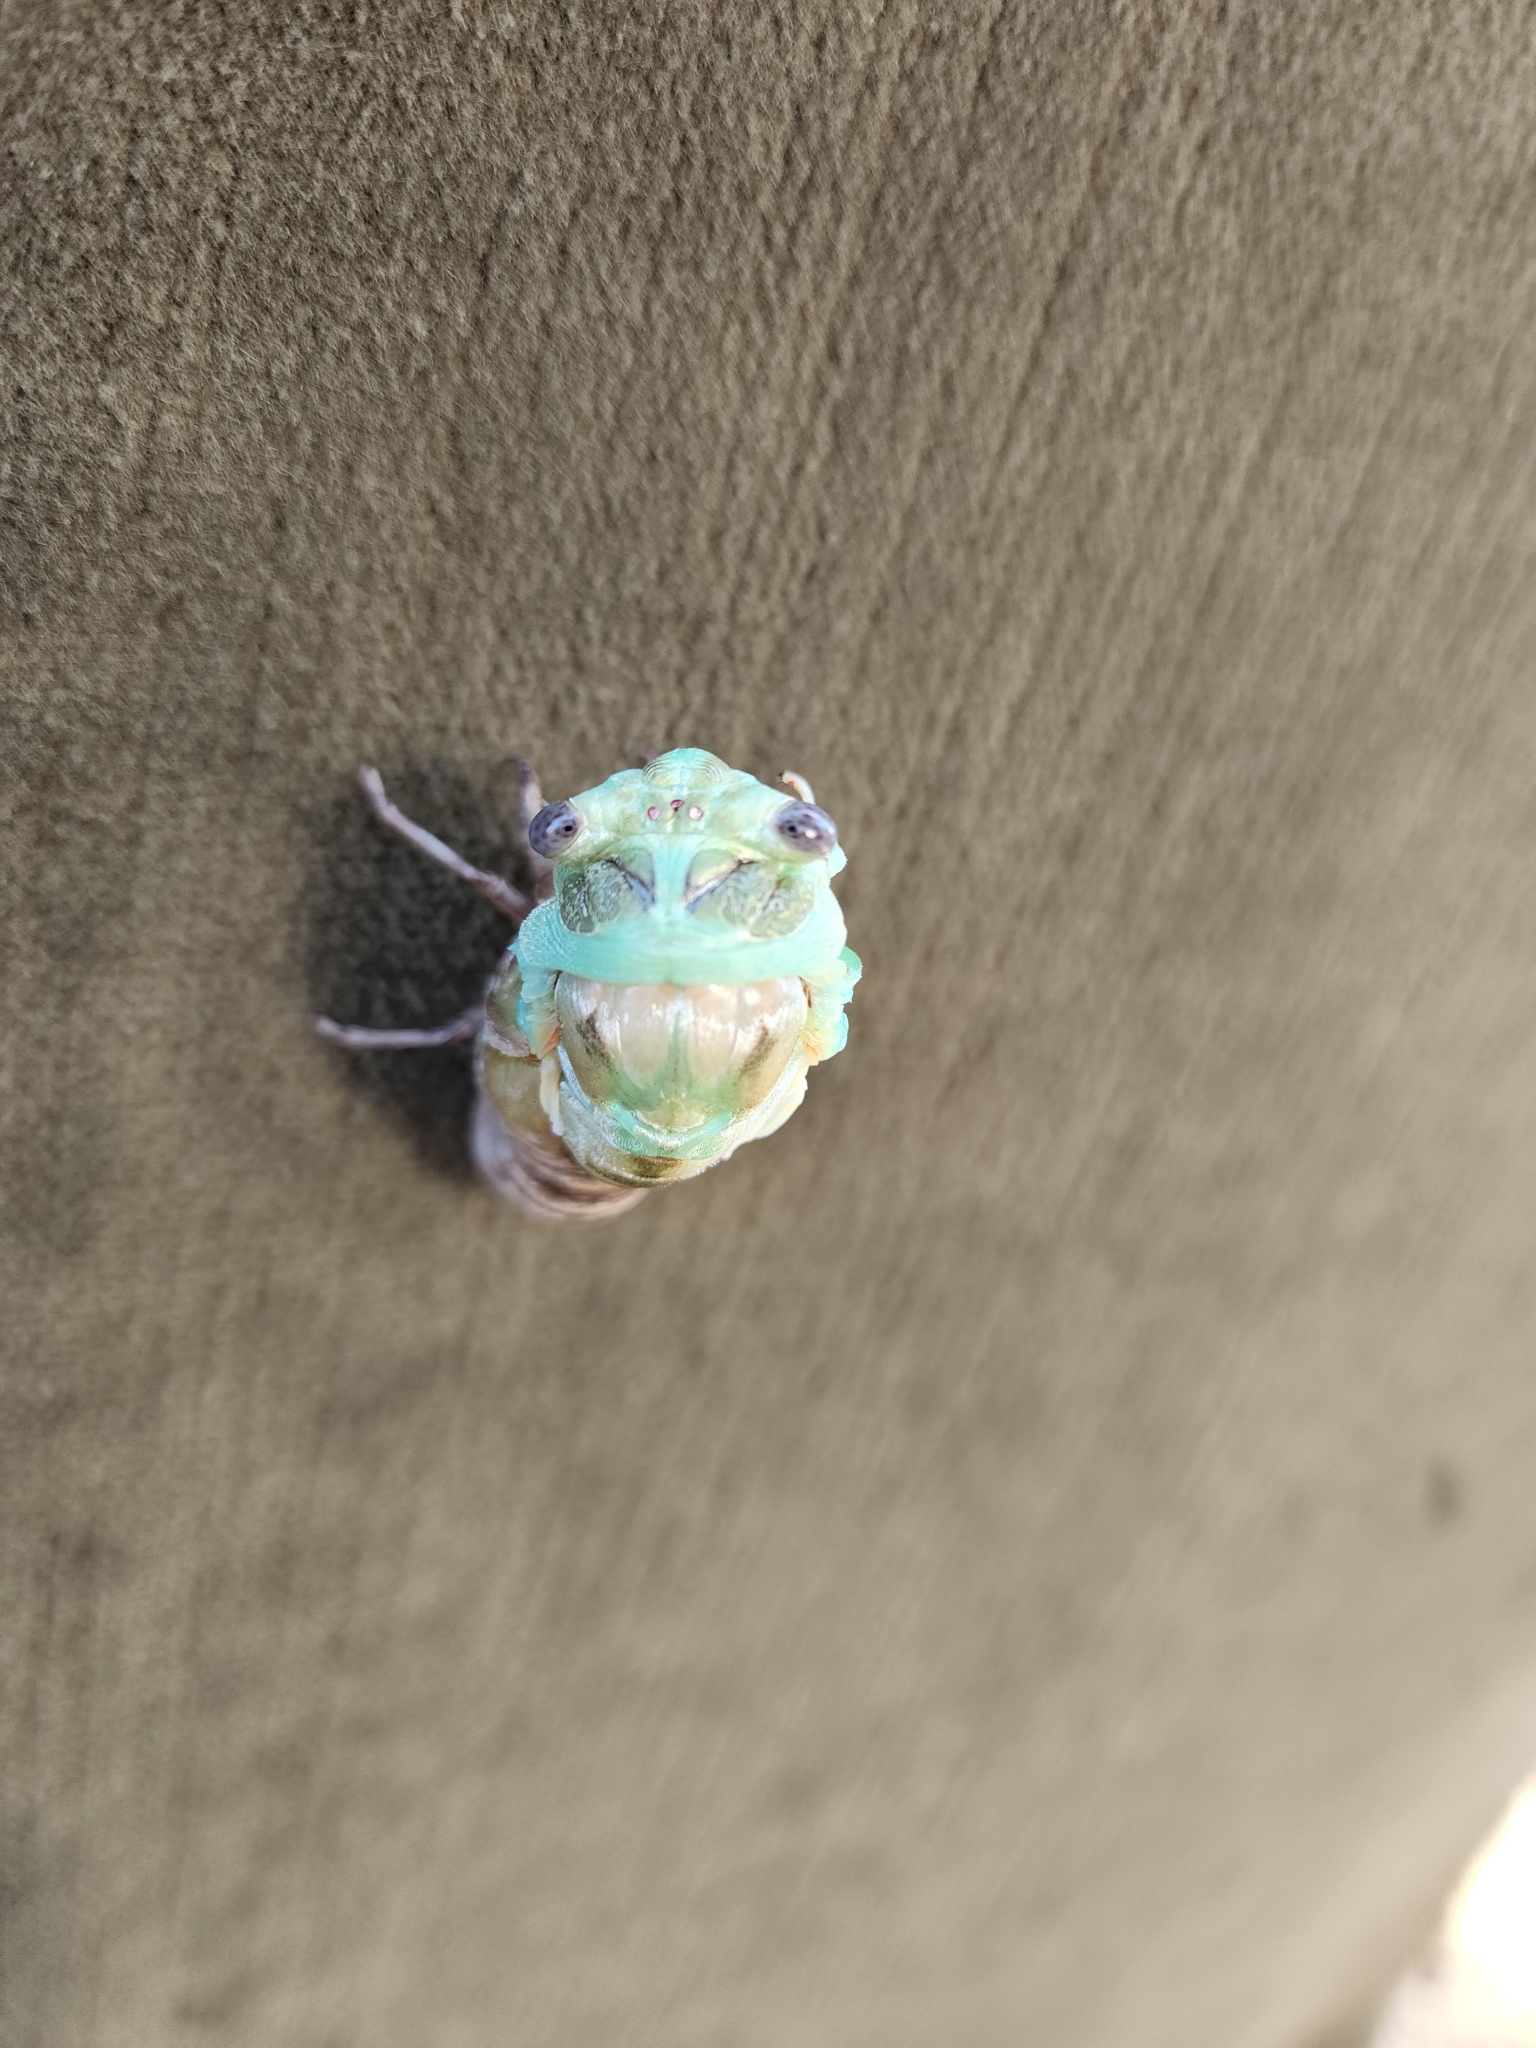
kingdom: Animalia
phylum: Arthropoda
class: Insecta
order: Hemiptera
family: Cicadidae
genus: Megatibicen
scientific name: Megatibicen resh
